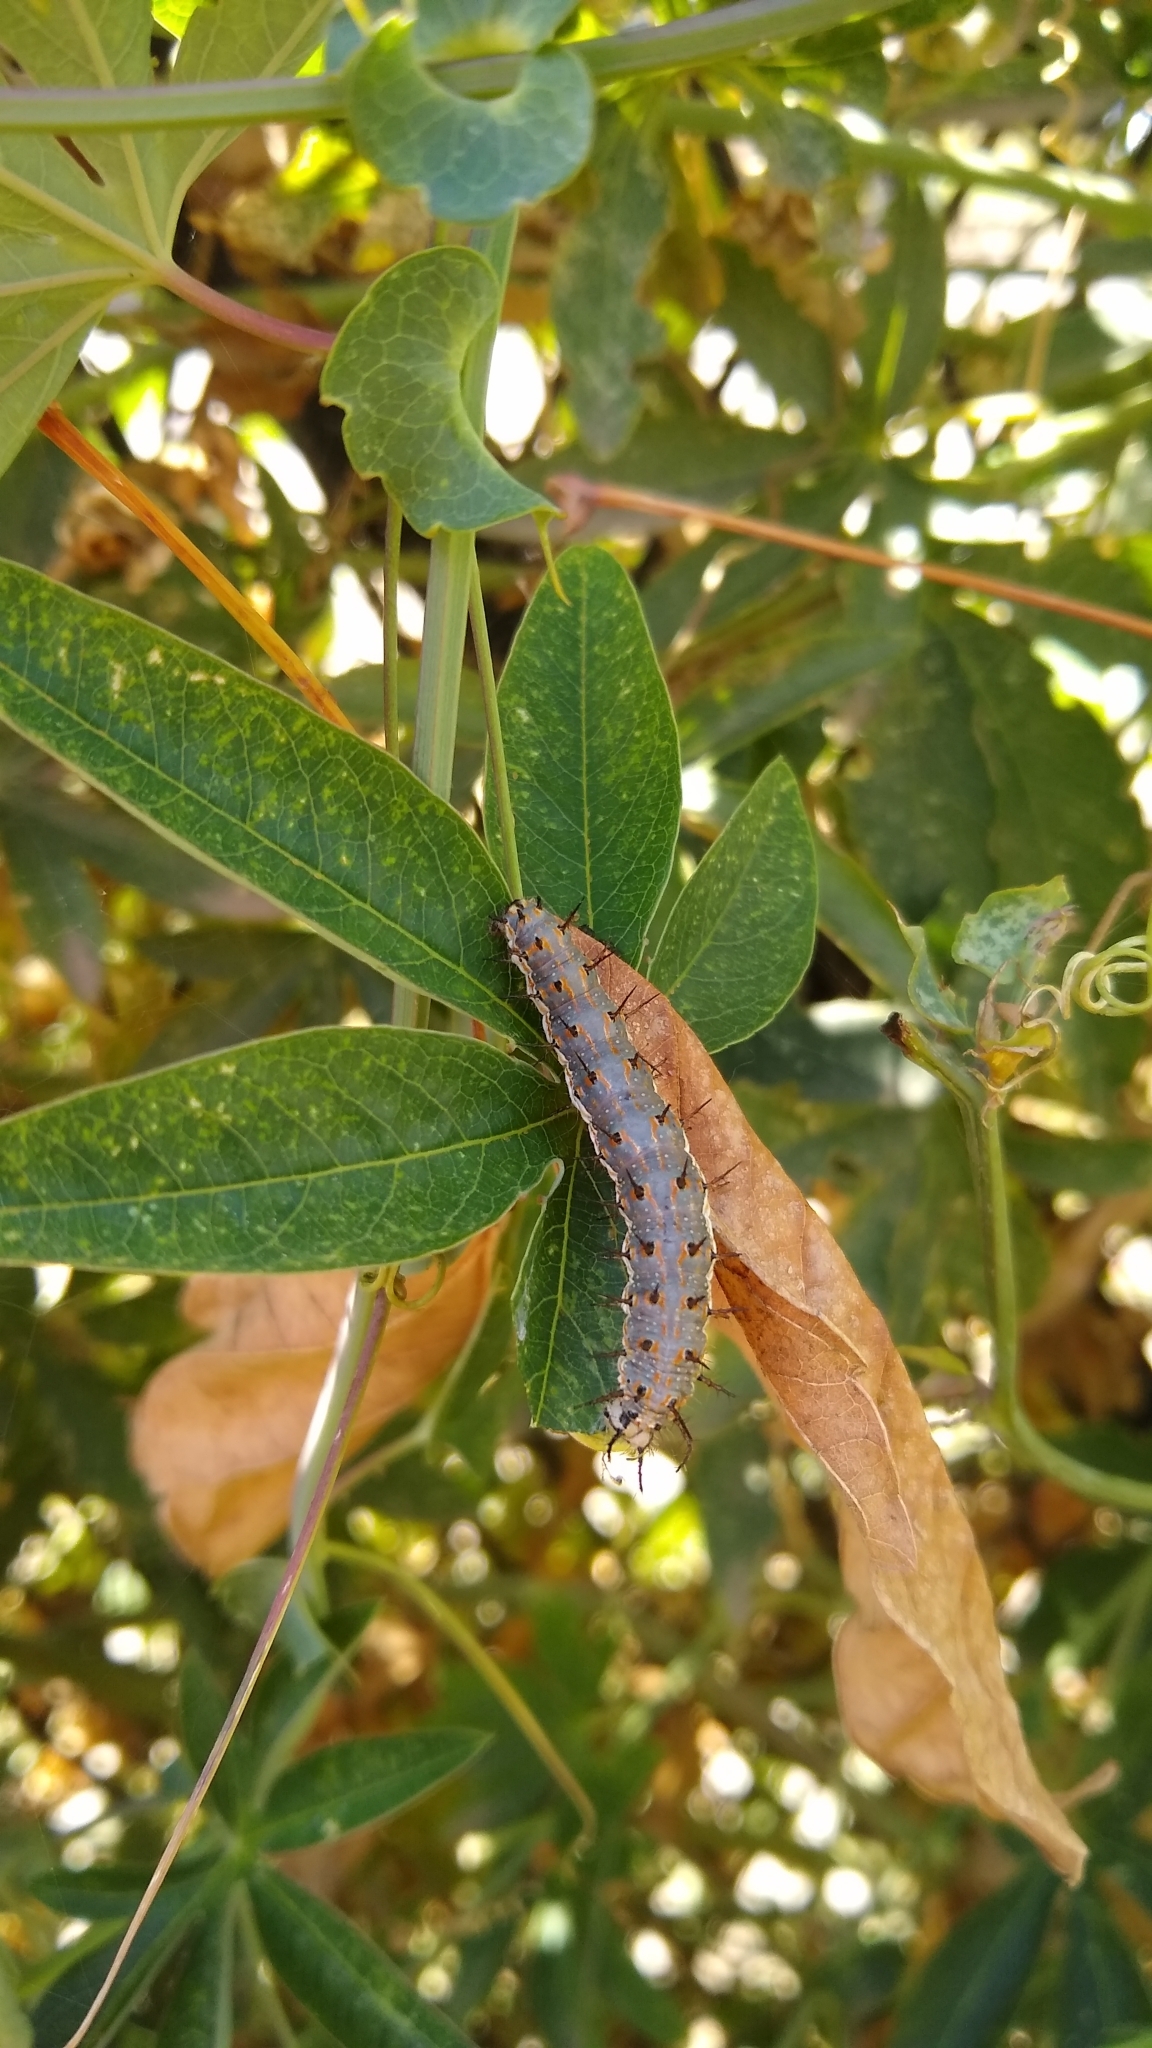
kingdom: Animalia
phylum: Arthropoda
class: Insecta
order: Lepidoptera
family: Nymphalidae
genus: Dione
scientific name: Dione vanillae
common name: Gulf fritillary
